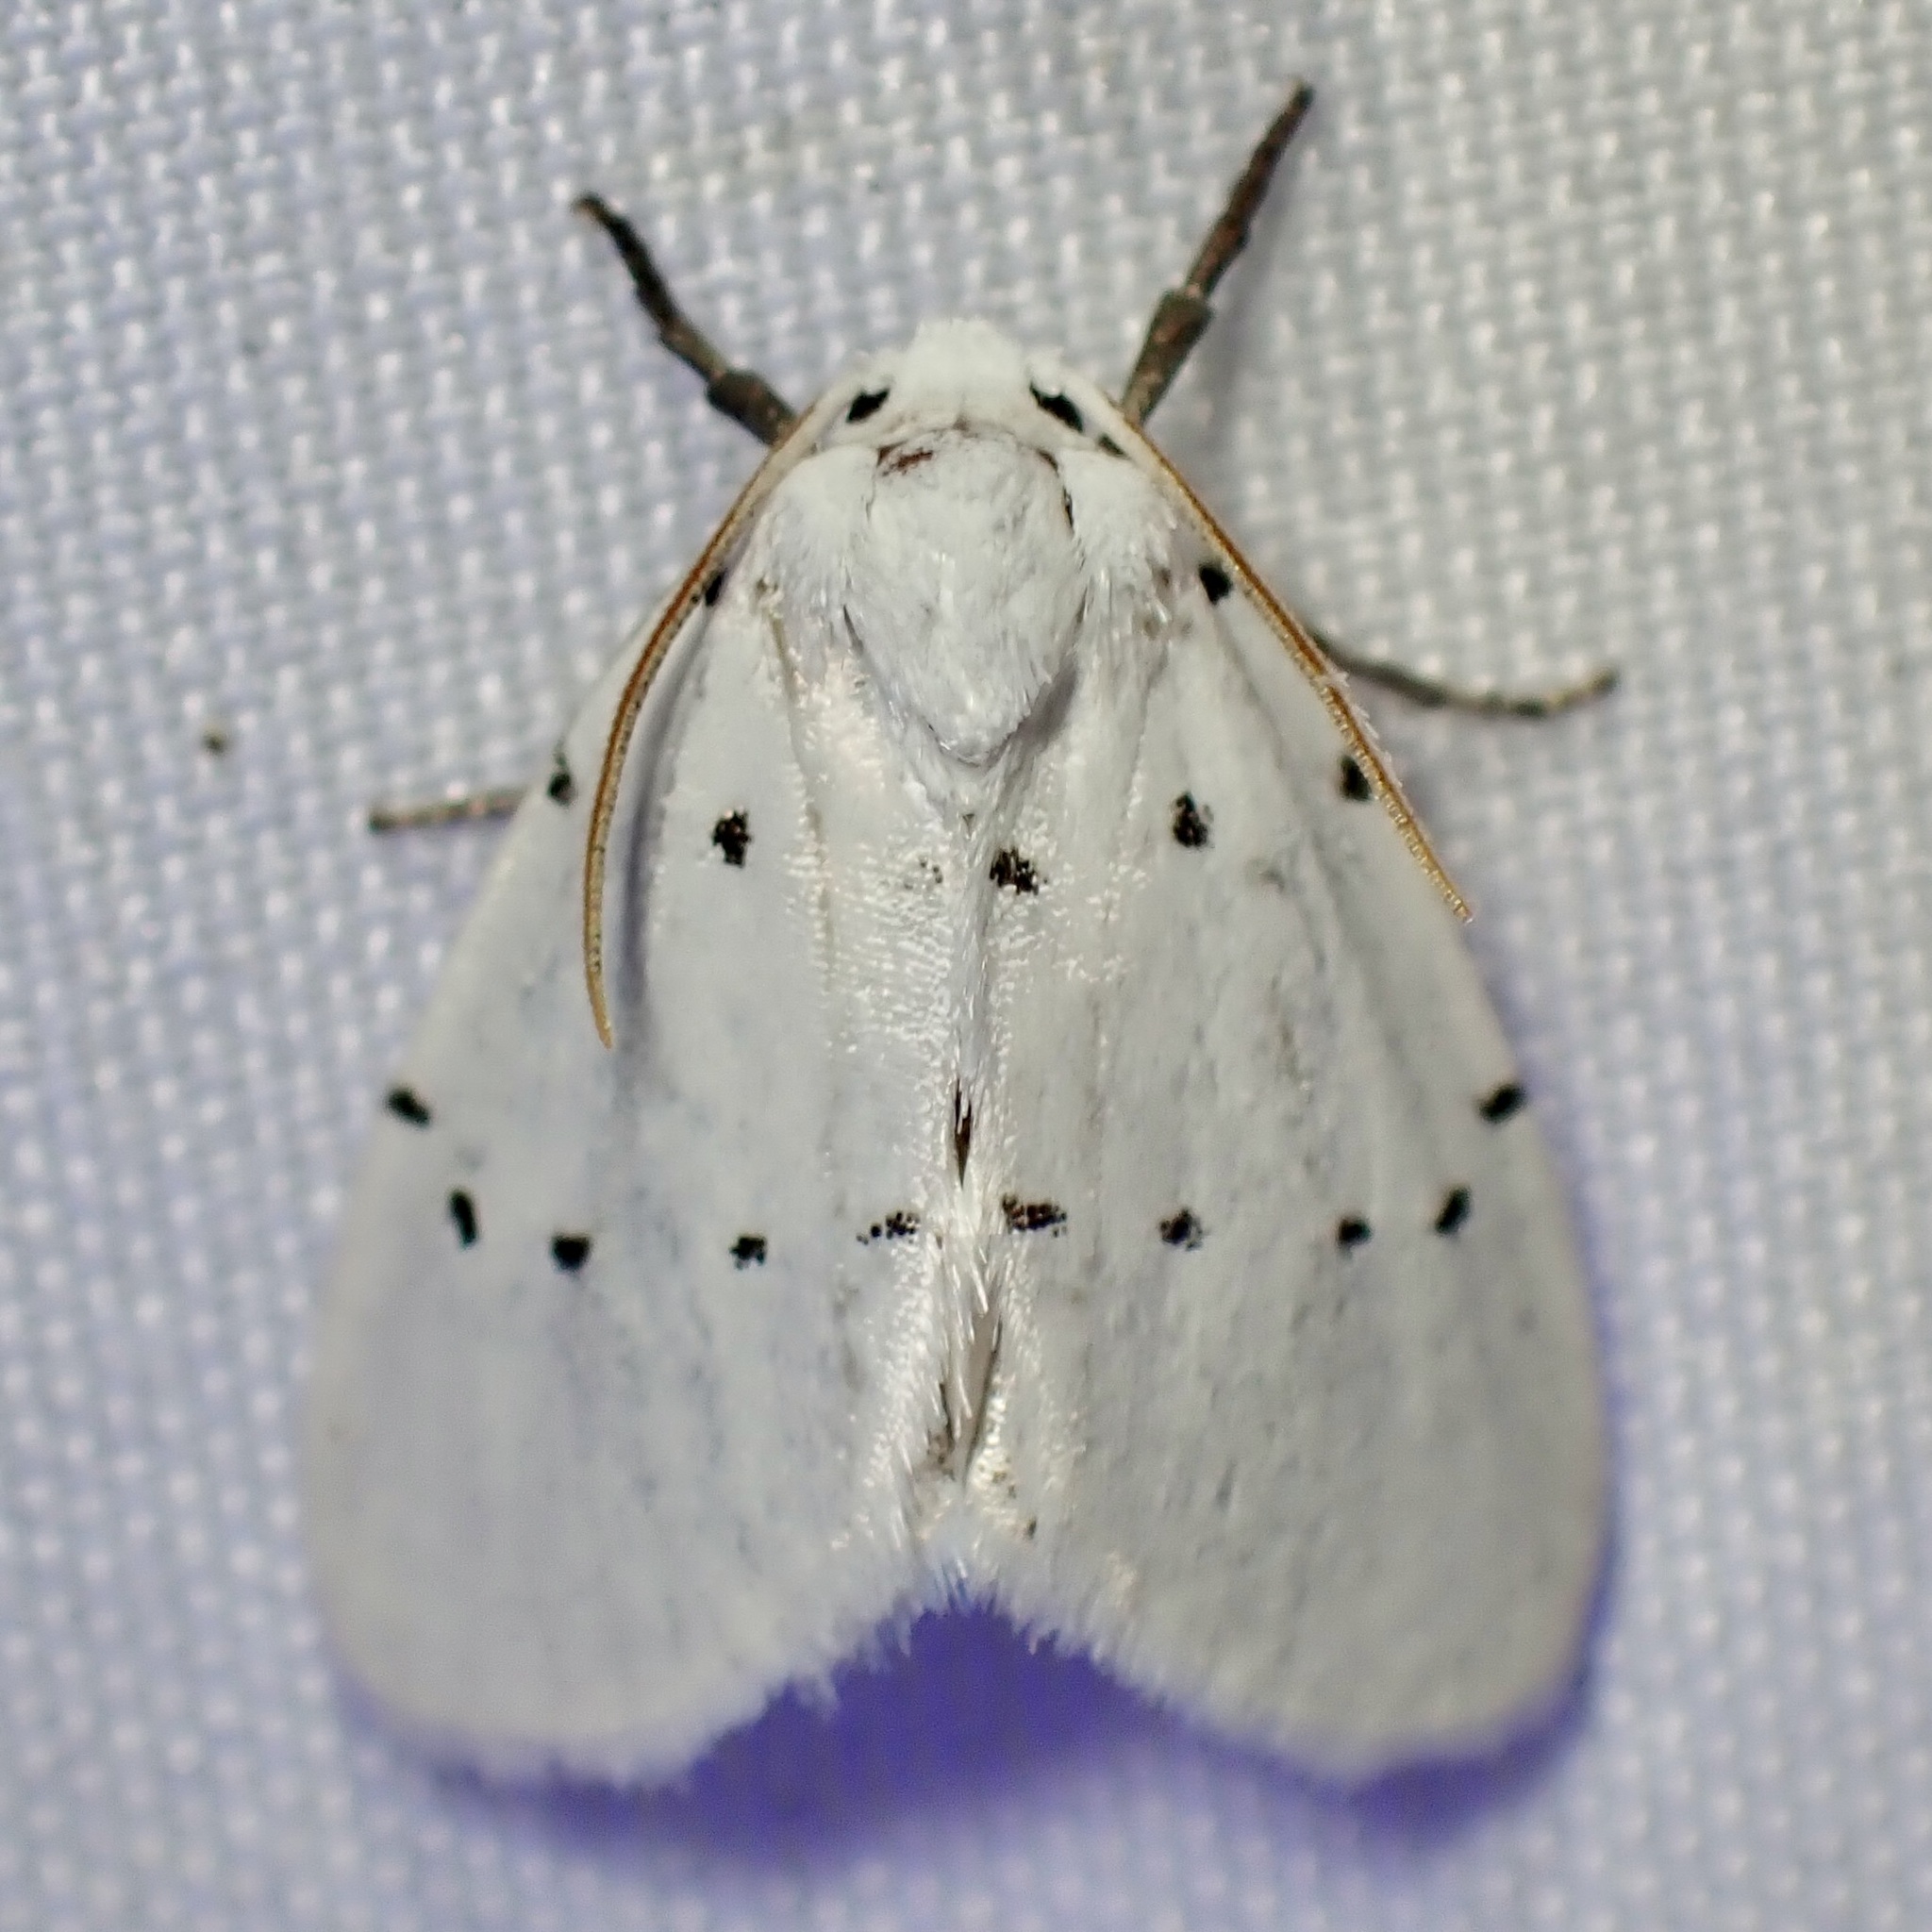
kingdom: Animalia
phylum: Arthropoda
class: Insecta
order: Lepidoptera
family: Noctuidae
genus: Homolagoa
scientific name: Homolagoa grotelliformis
